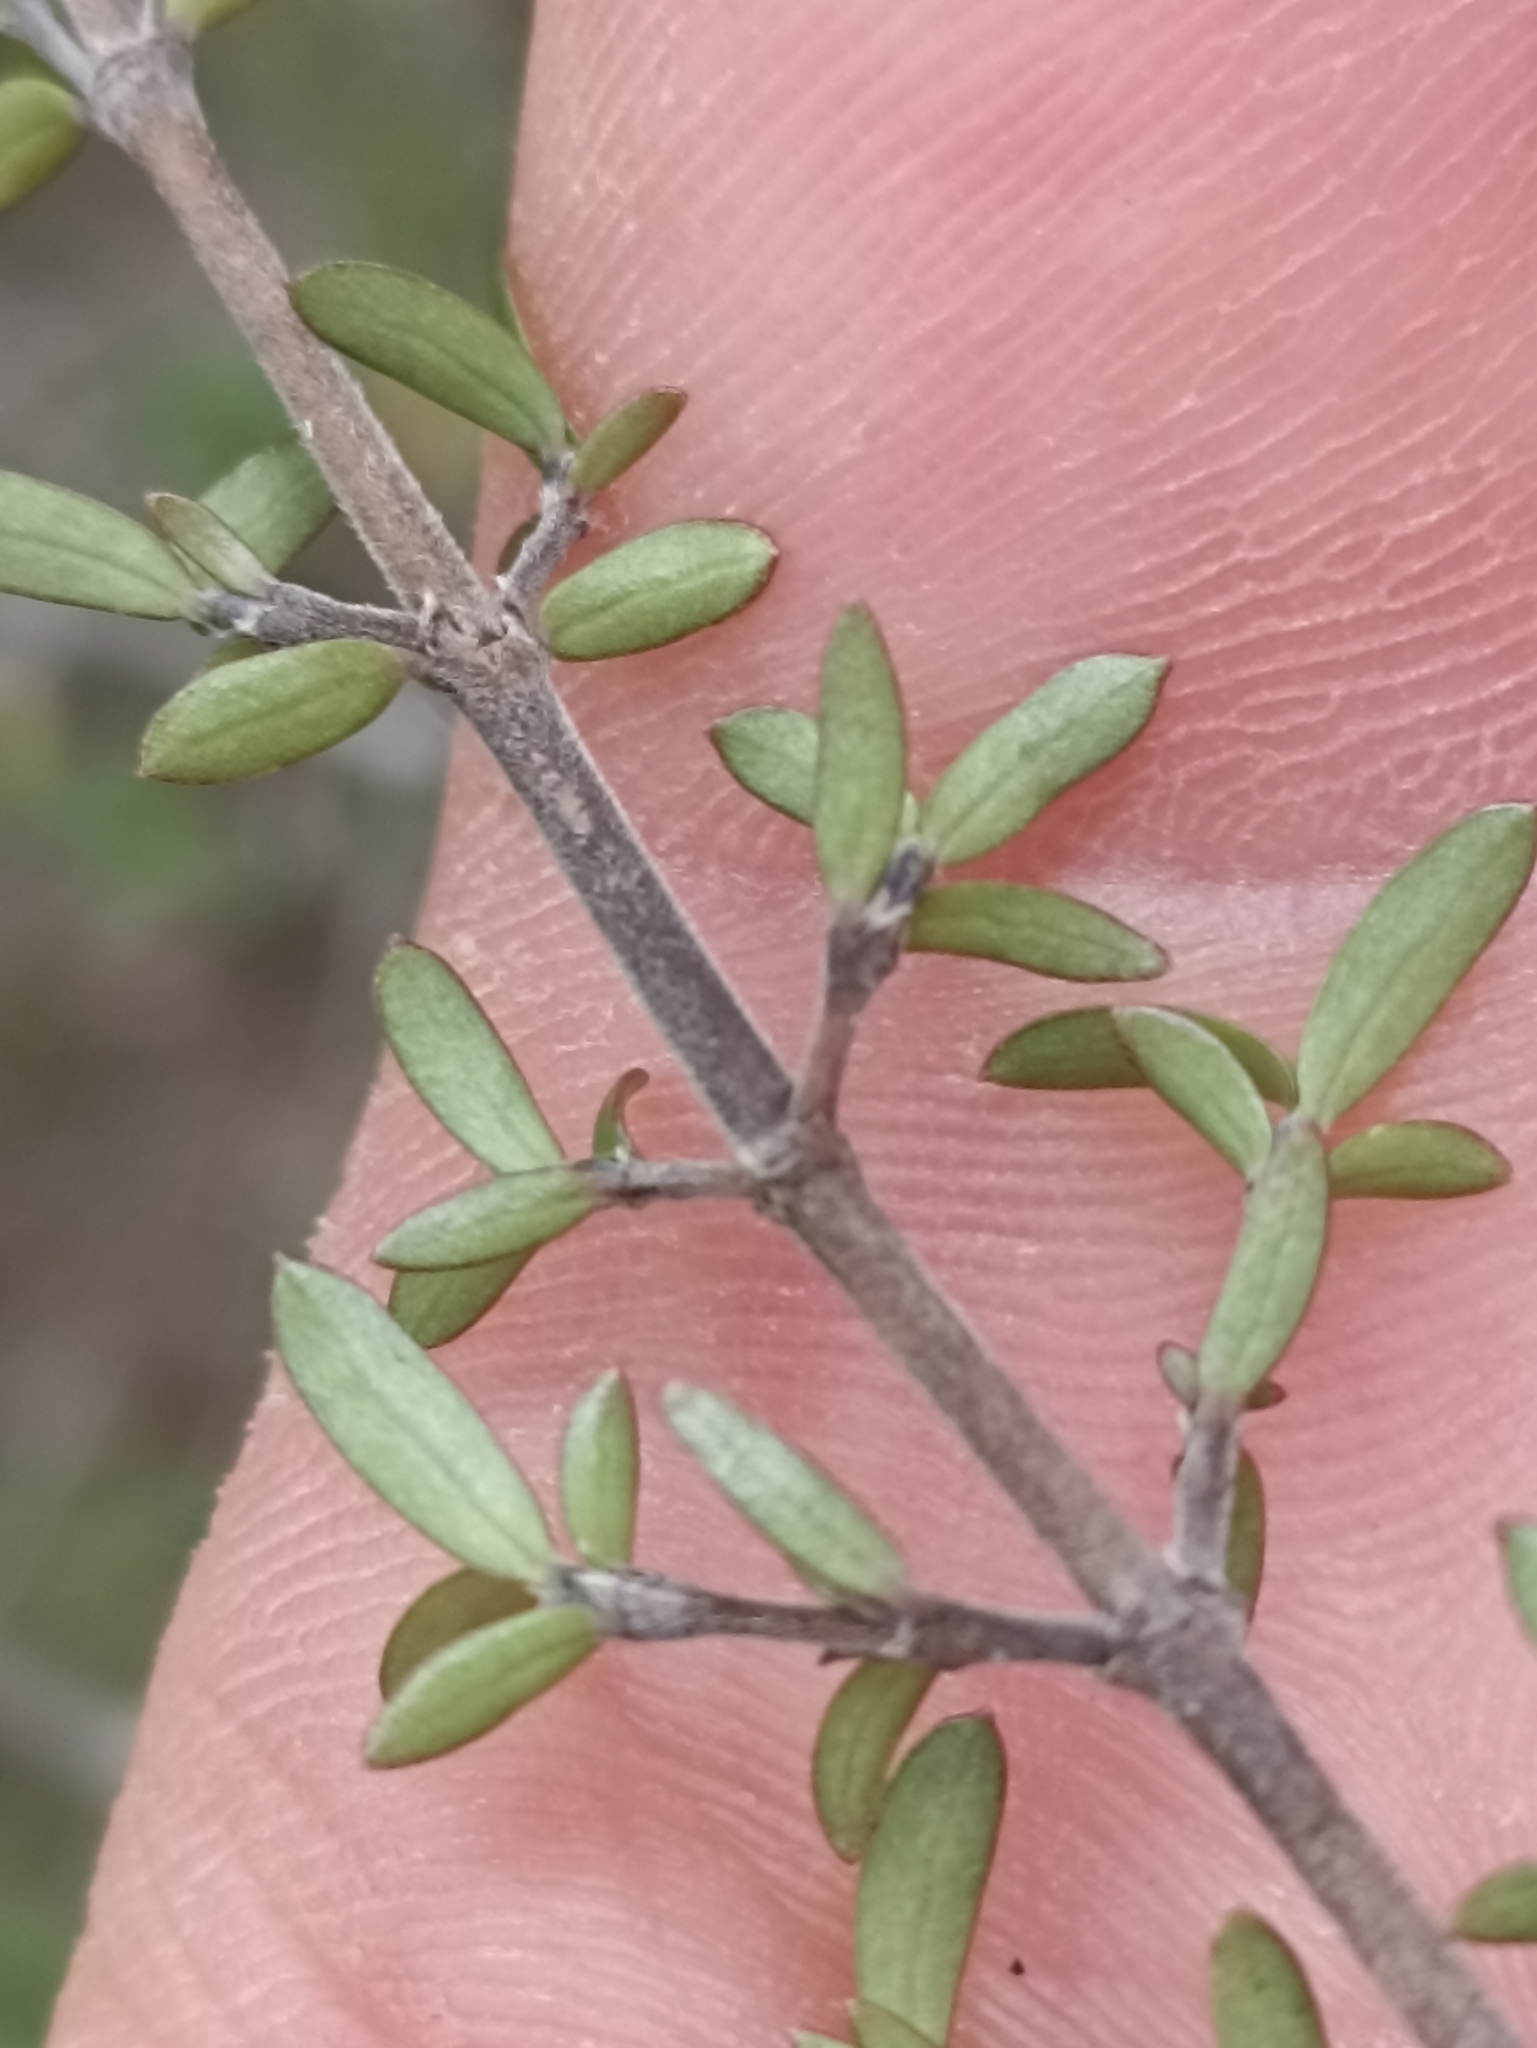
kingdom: Plantae
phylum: Tracheophyta
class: Magnoliopsida
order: Gentianales
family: Rubiaceae
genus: Coprosma
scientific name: Coprosma propinqua
